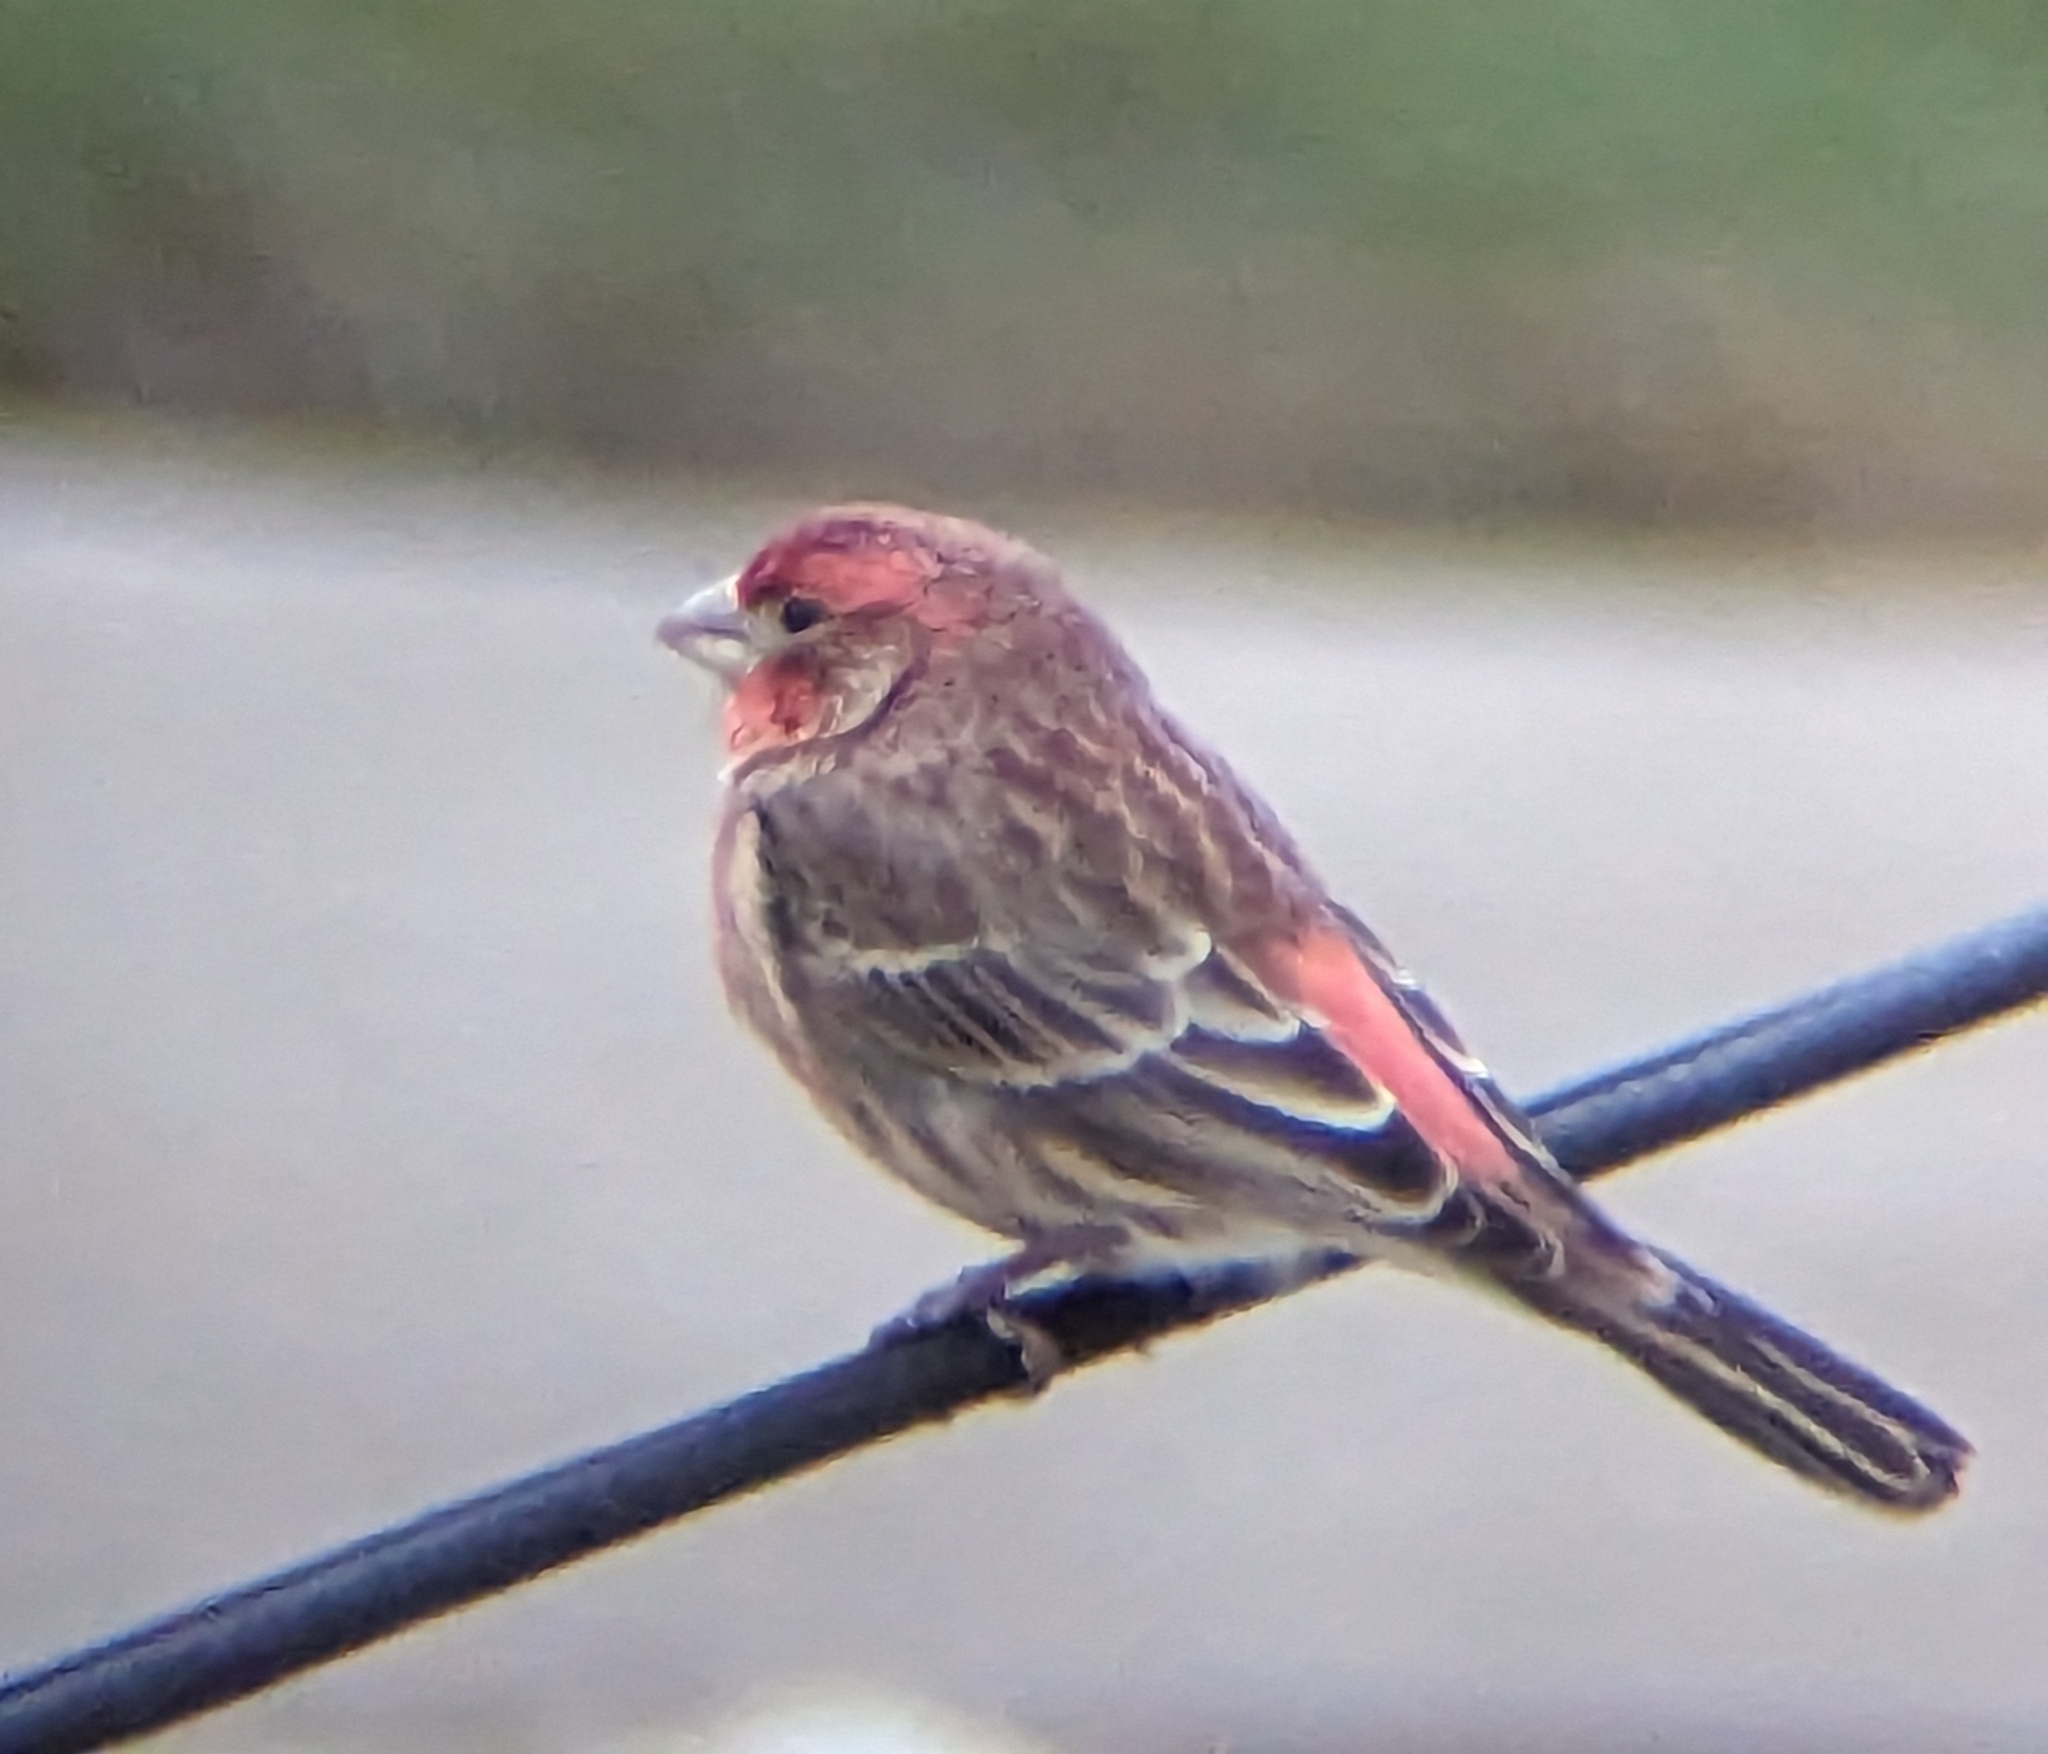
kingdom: Animalia
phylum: Chordata
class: Aves
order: Passeriformes
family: Fringillidae
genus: Haemorhous
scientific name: Haemorhous mexicanus
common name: House finch
